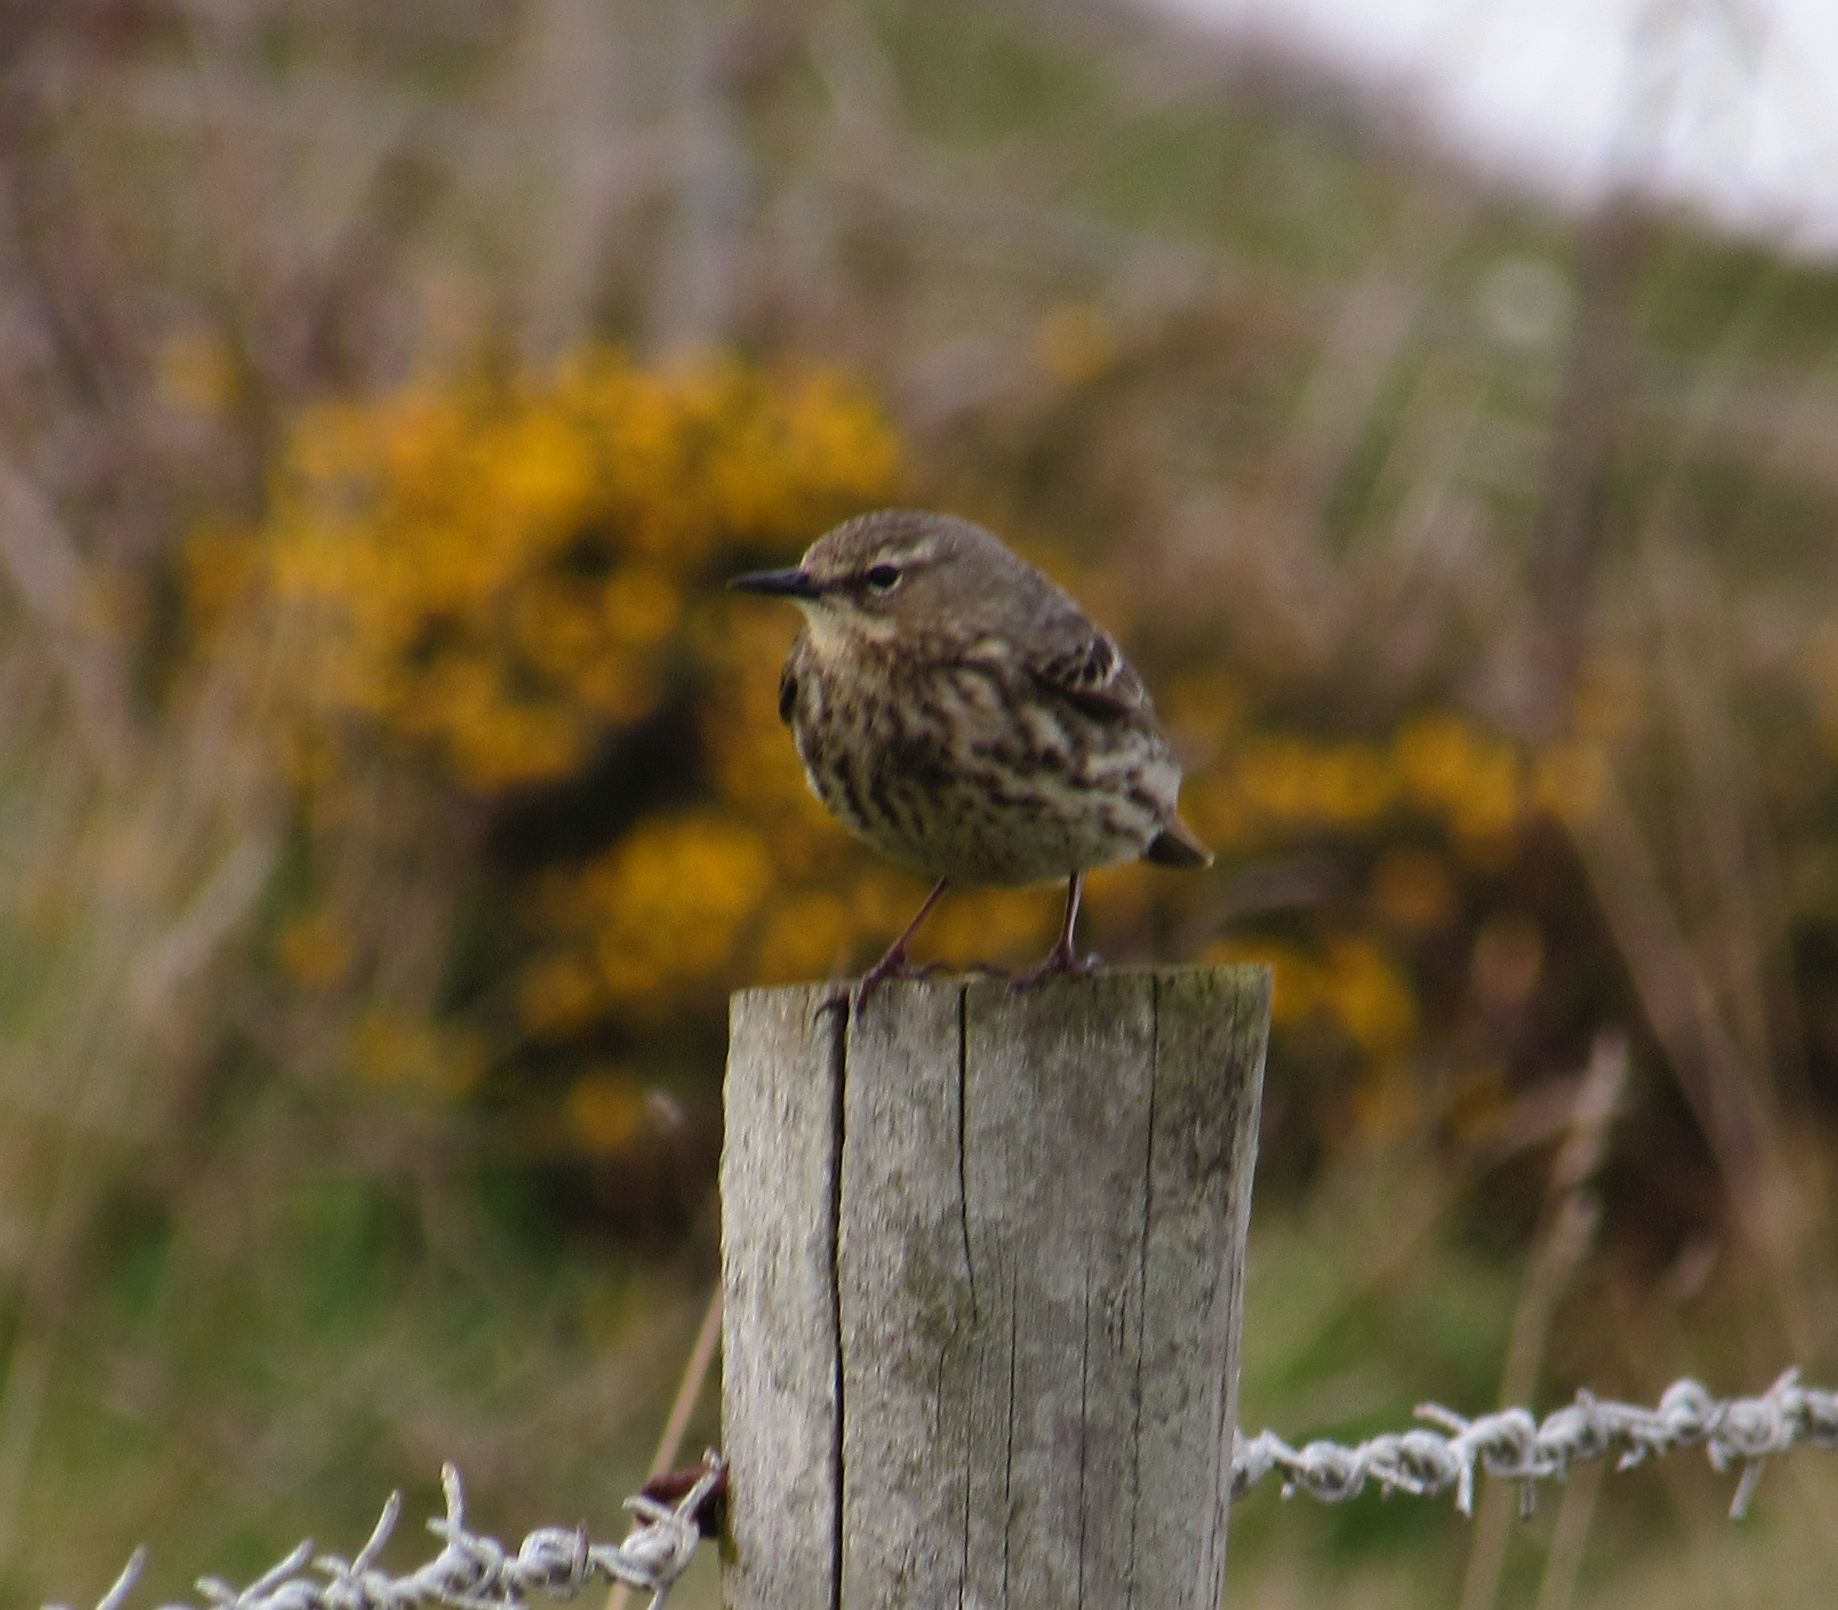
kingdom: Animalia
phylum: Chordata
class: Aves
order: Passeriformes
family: Motacillidae
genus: Anthus
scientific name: Anthus petrosus
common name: Eurasian rock pipit
